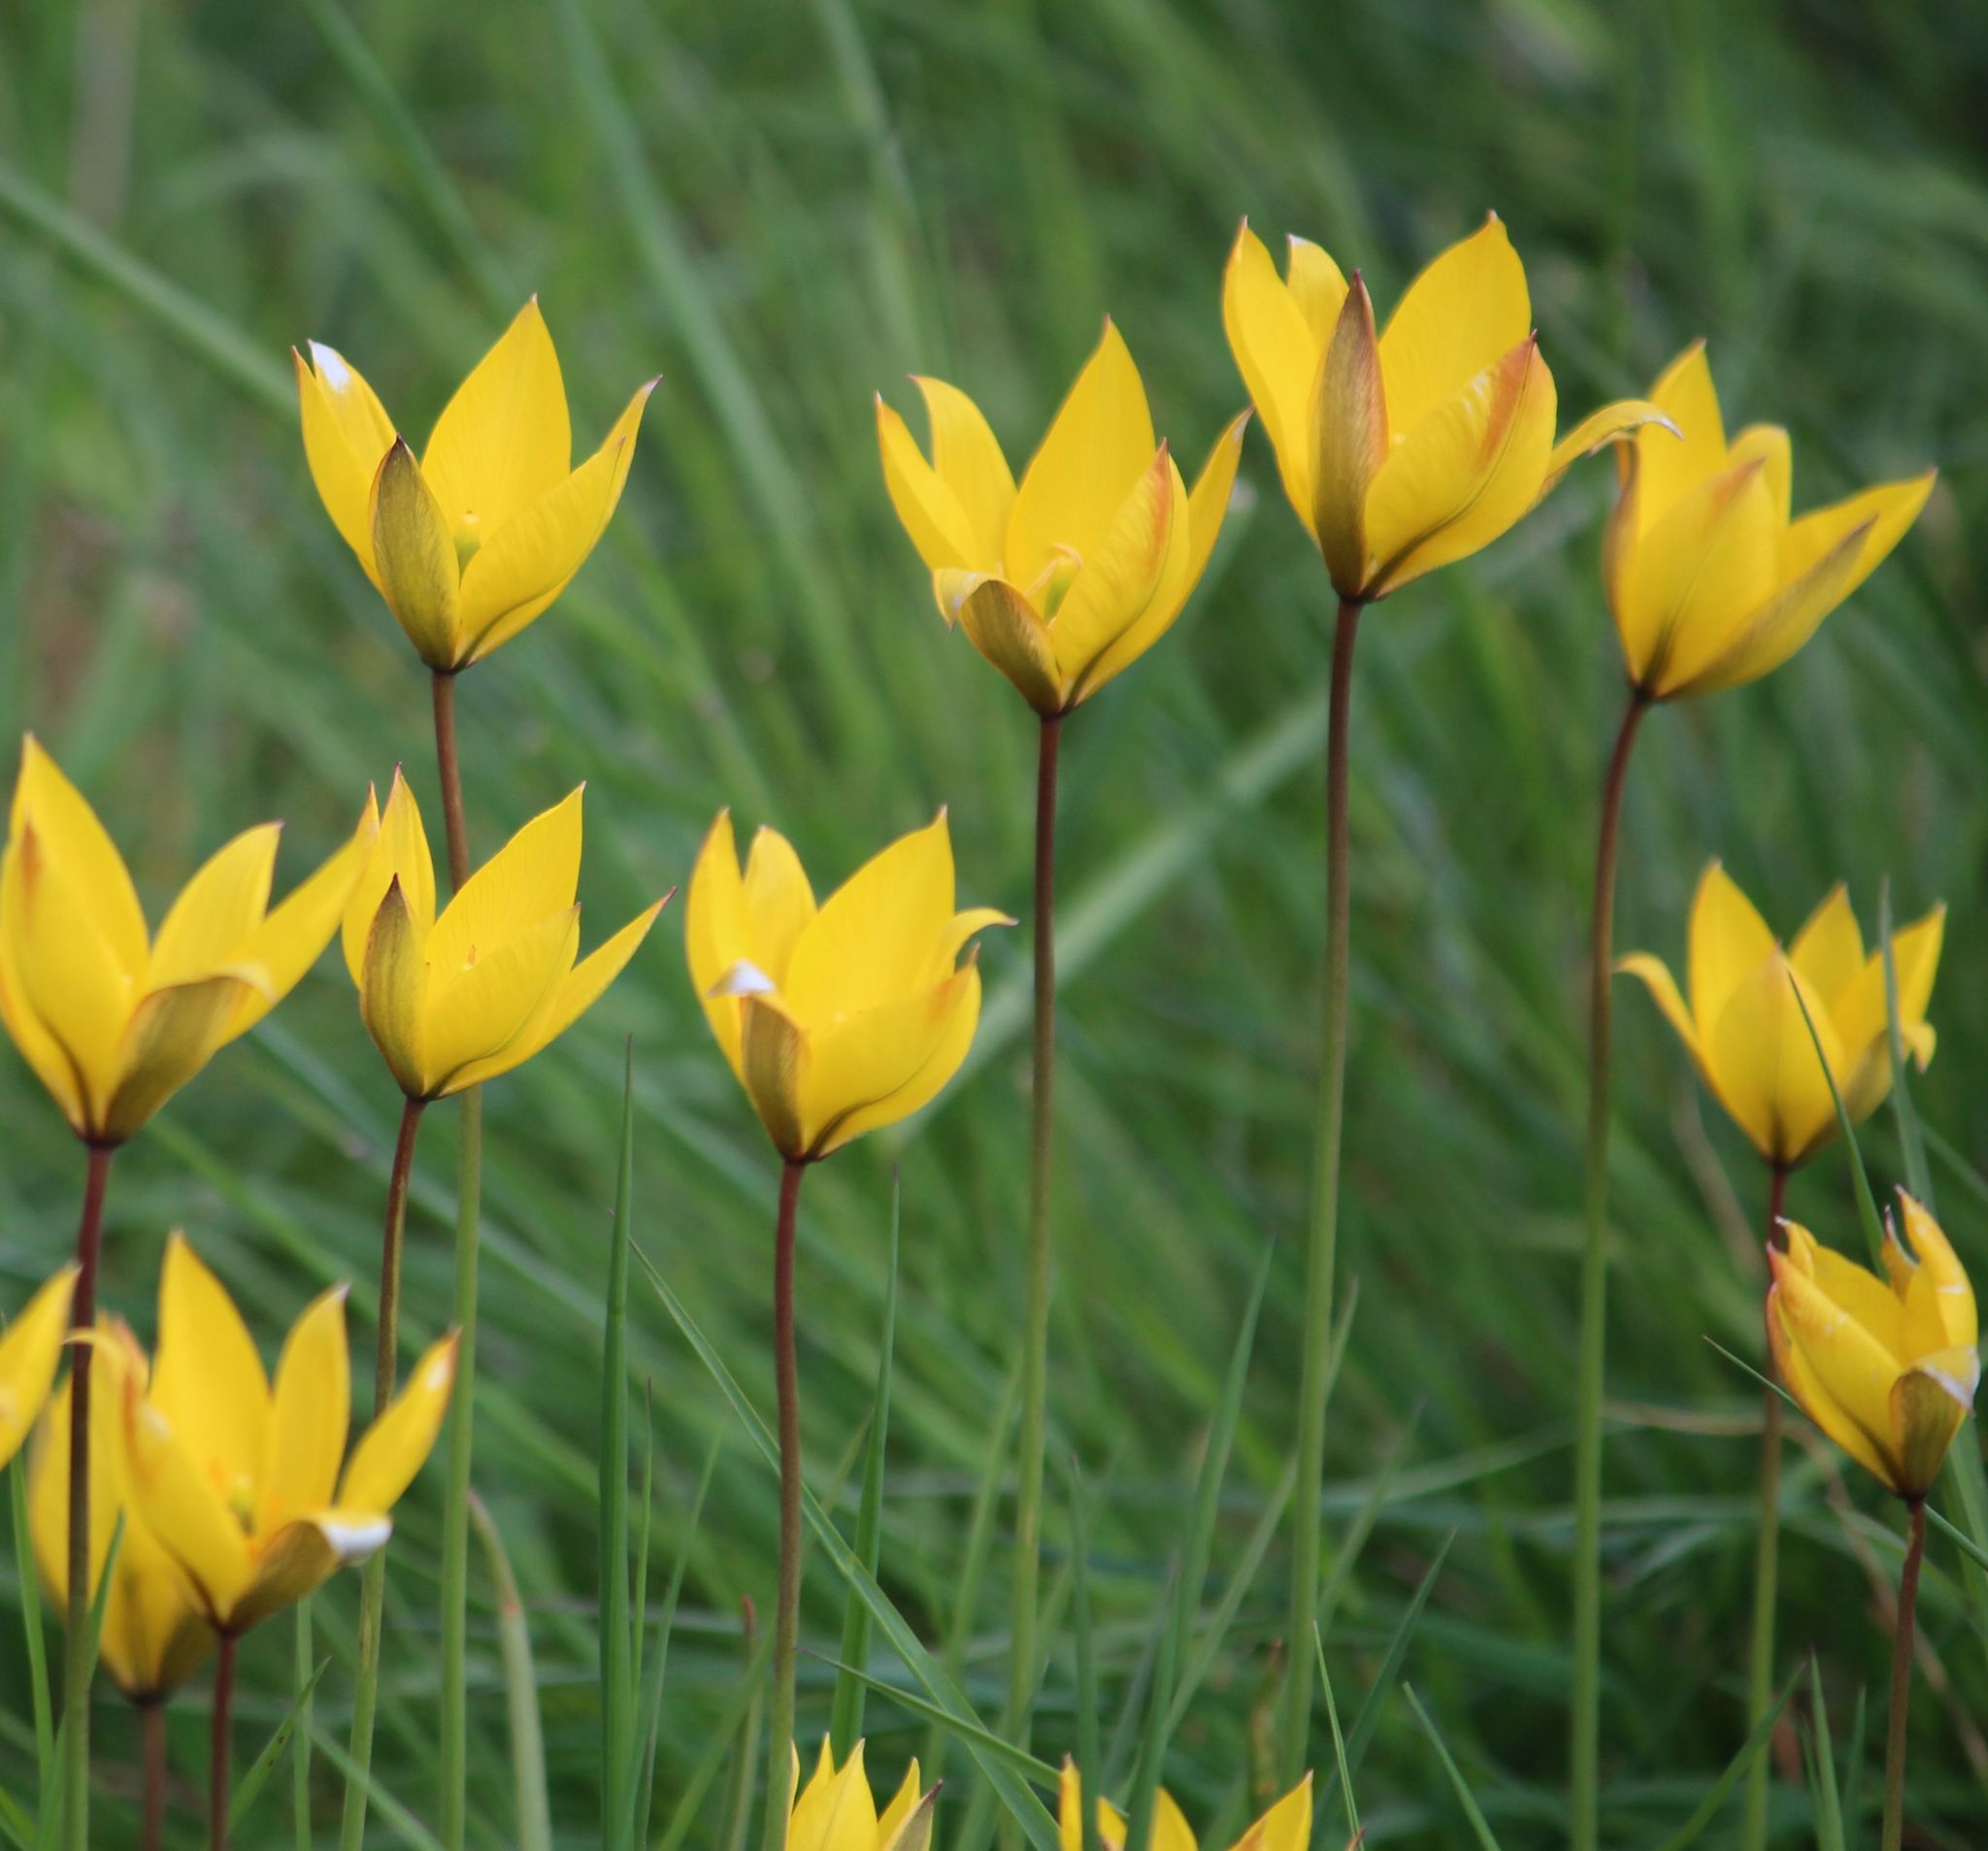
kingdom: Plantae
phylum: Tracheophyta
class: Liliopsida
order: Liliales
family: Liliaceae
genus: Tulipa
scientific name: Tulipa sylvestris
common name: Wild tulip
